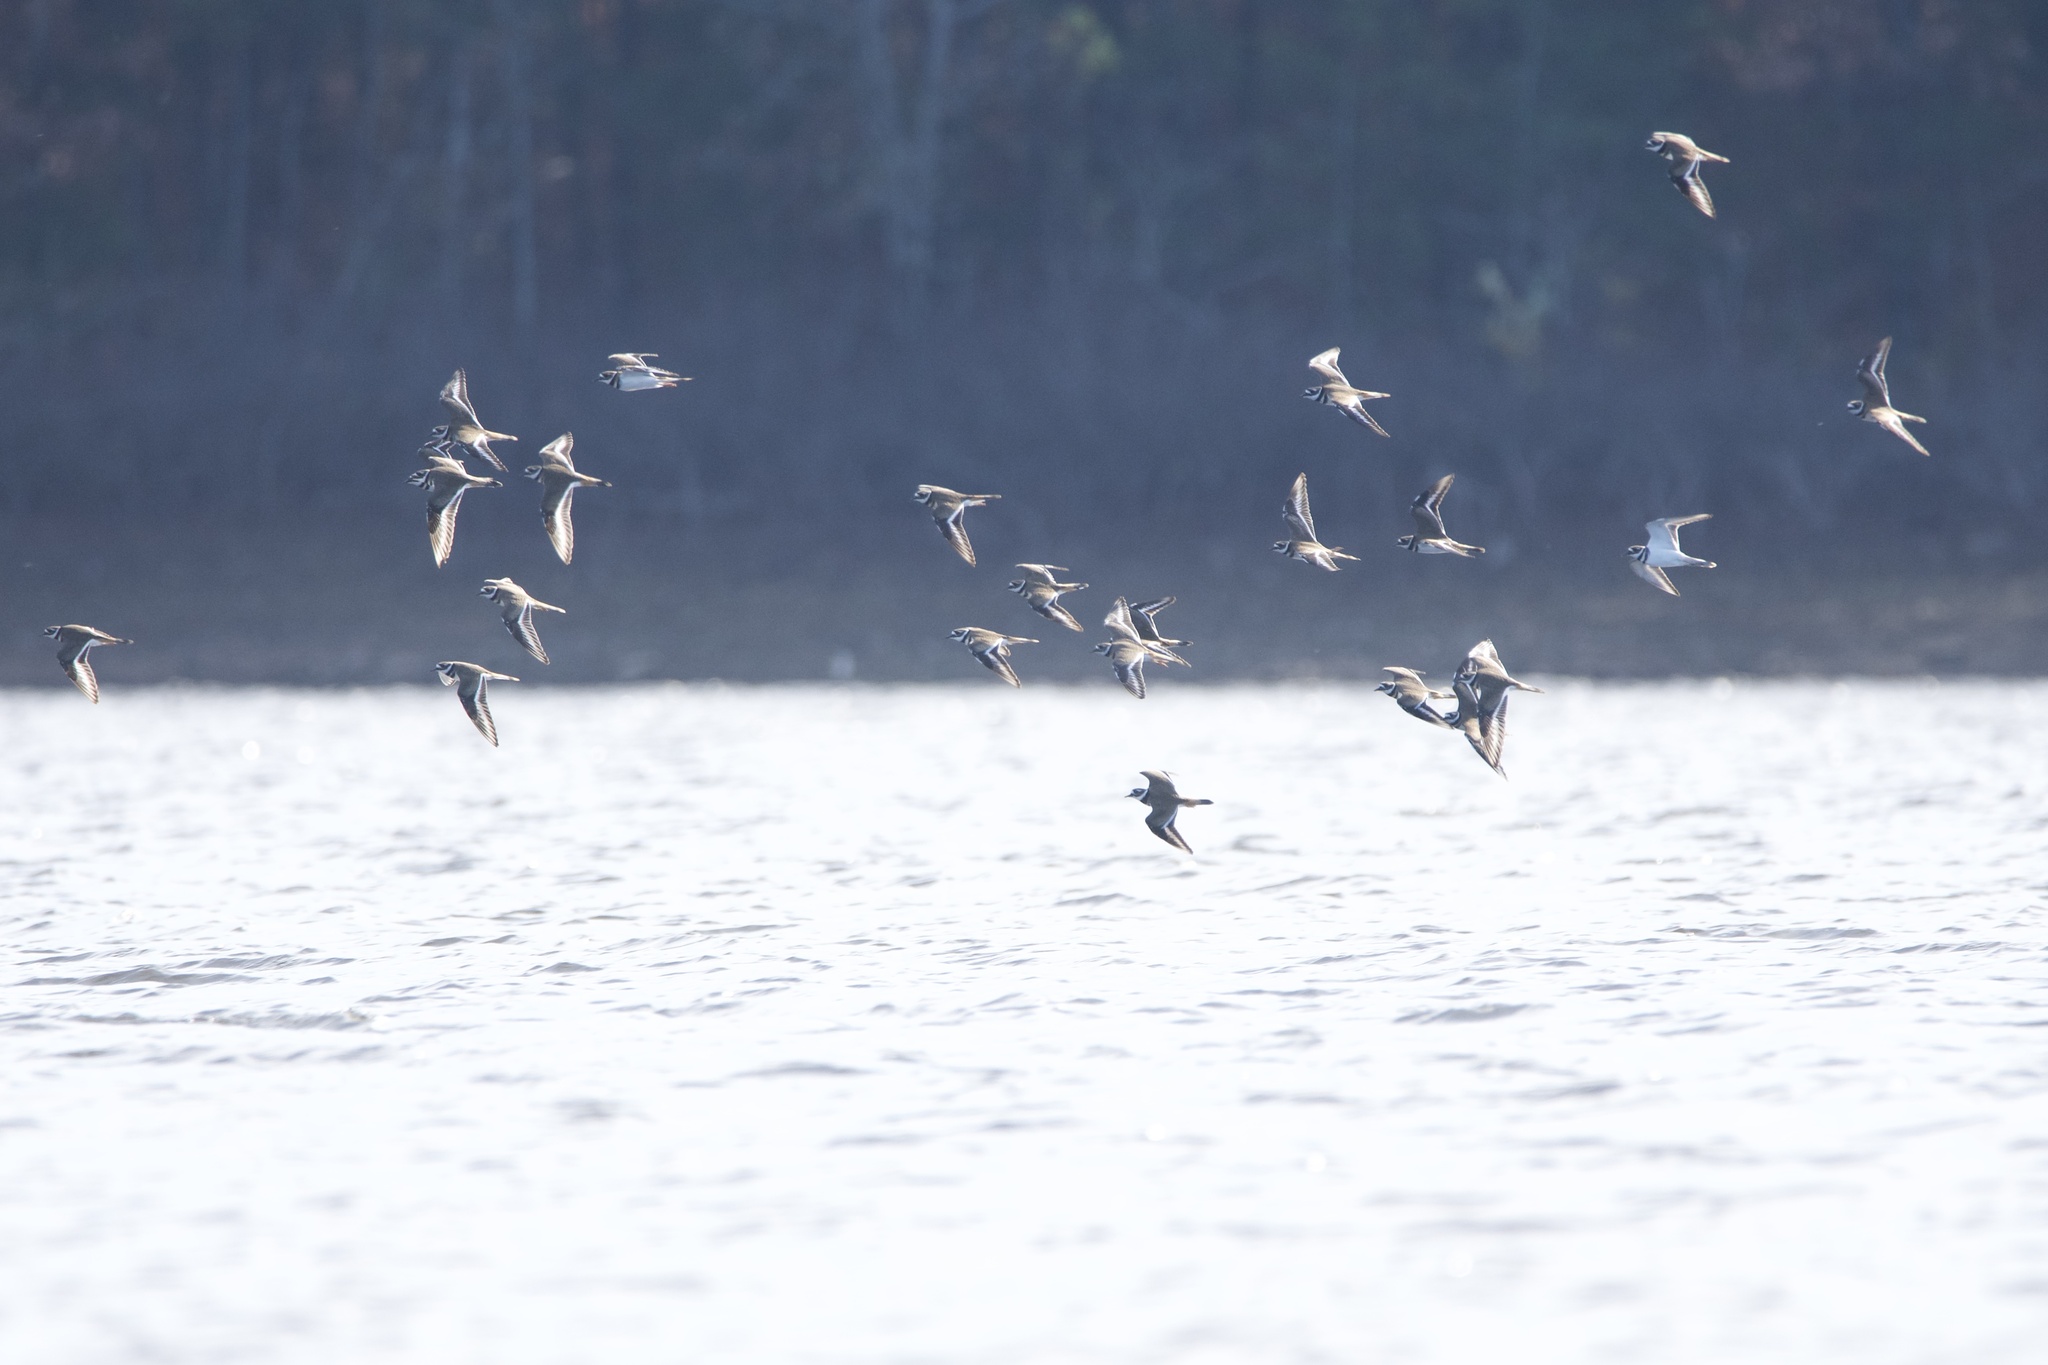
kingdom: Animalia
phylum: Chordata
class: Aves
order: Charadriiformes
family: Charadriidae
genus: Charadrius
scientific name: Charadrius vociferus
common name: Killdeer
